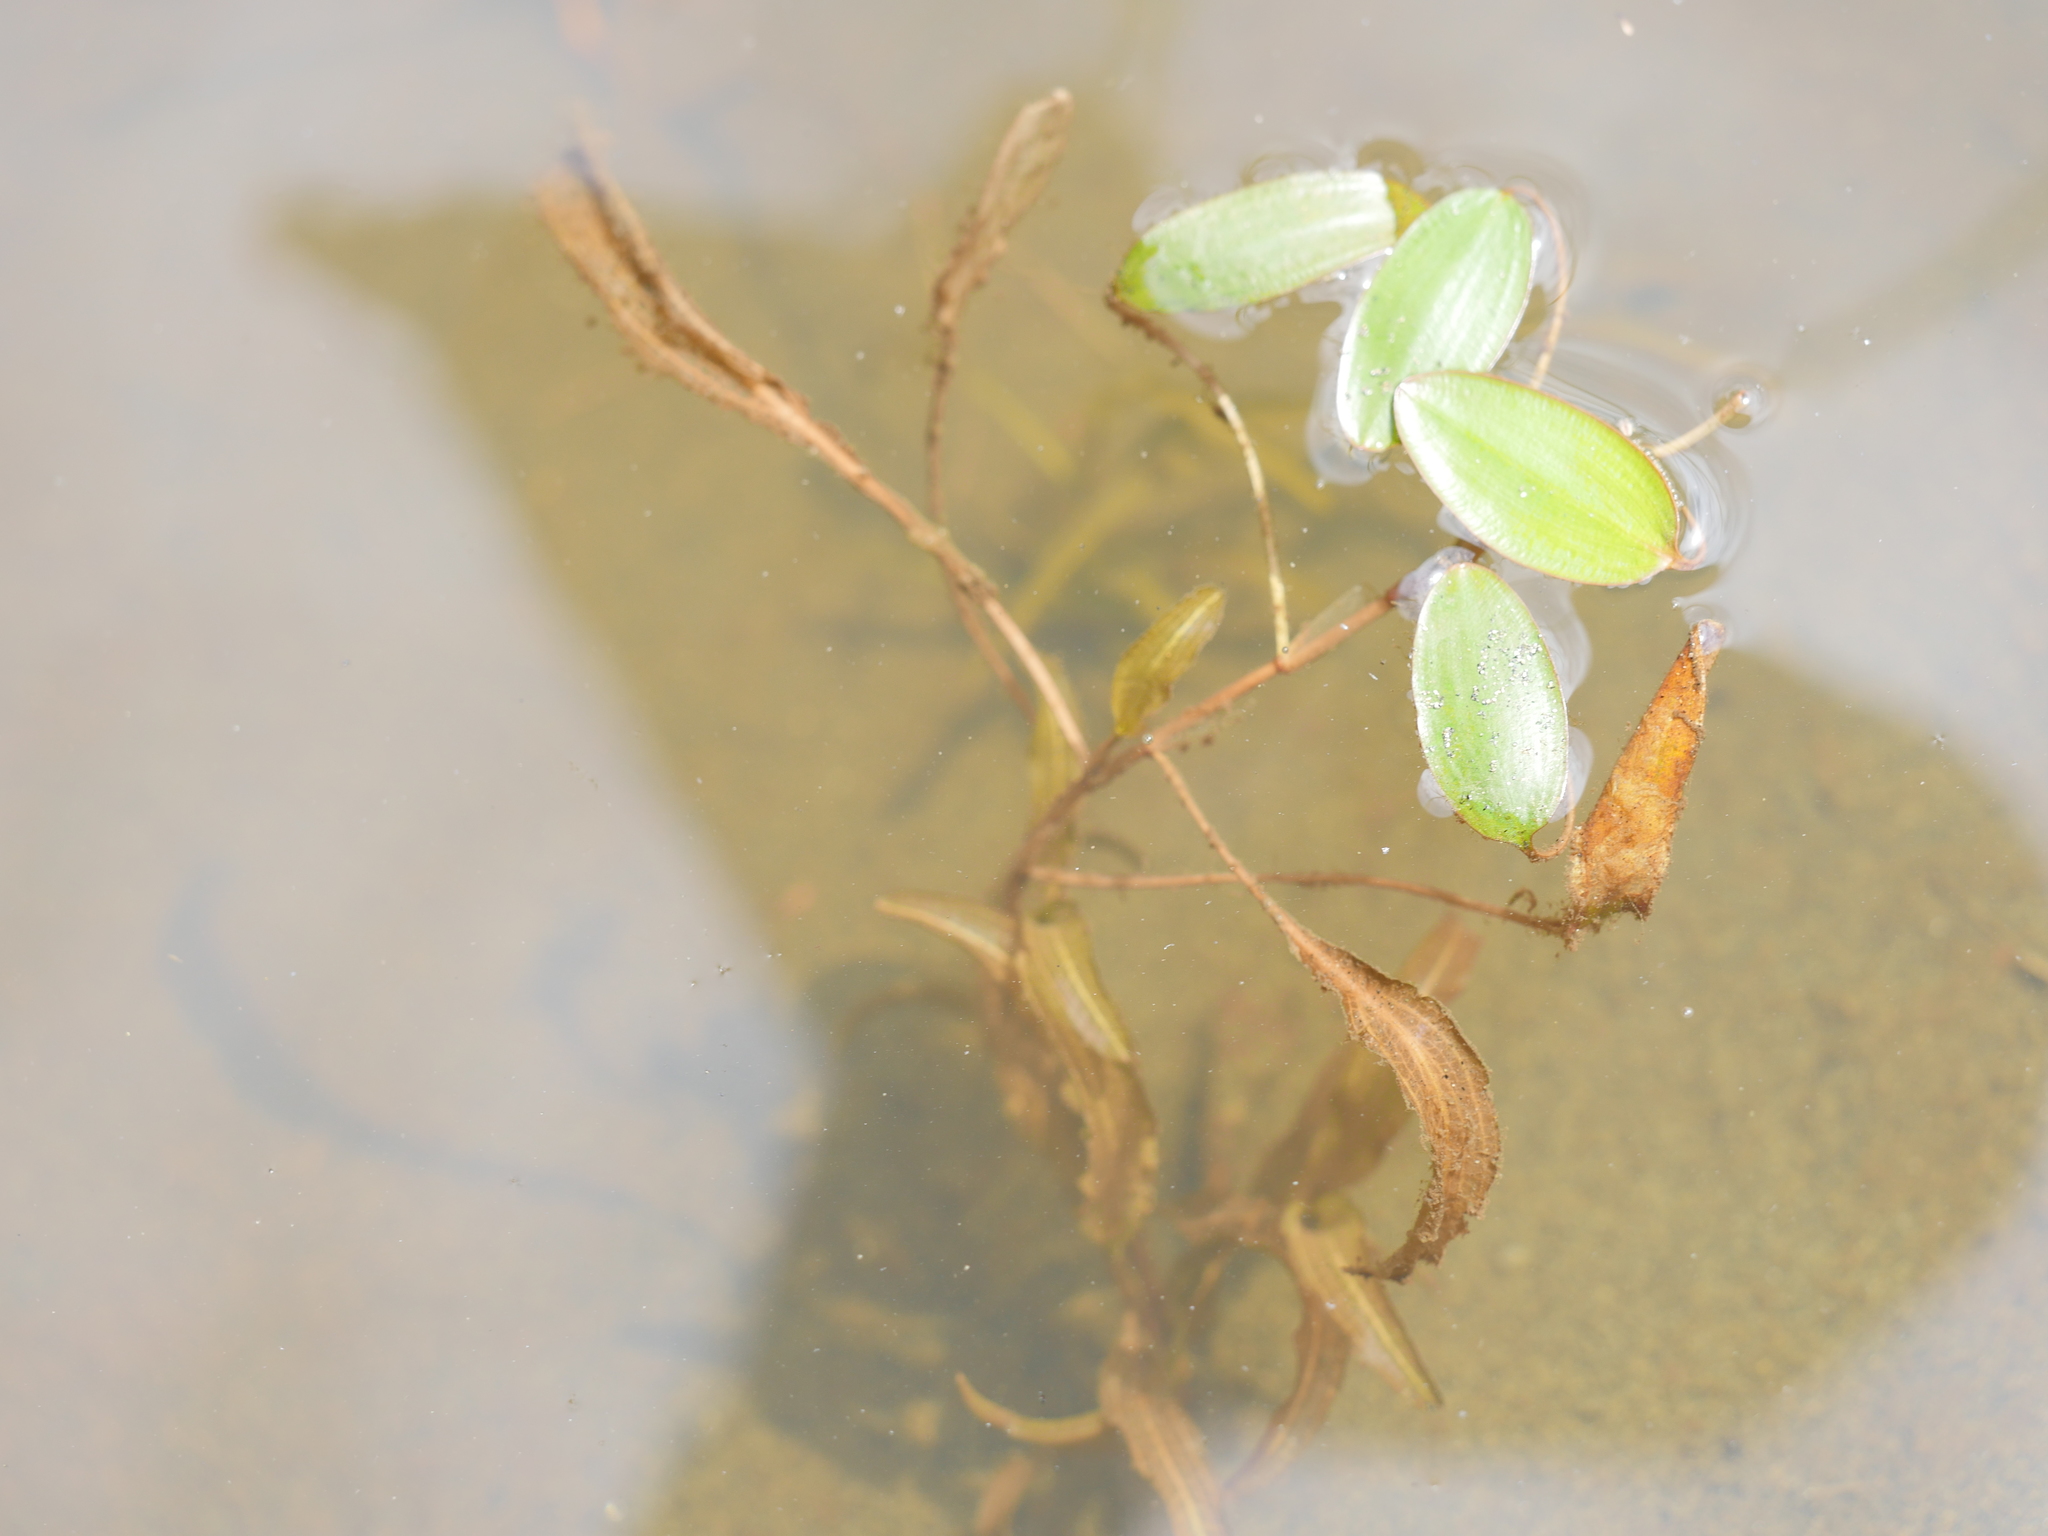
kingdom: Plantae
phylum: Tracheophyta
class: Liliopsida
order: Alismatales
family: Potamogetonaceae
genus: Potamogeton
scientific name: Potamogeton cheesemanii
